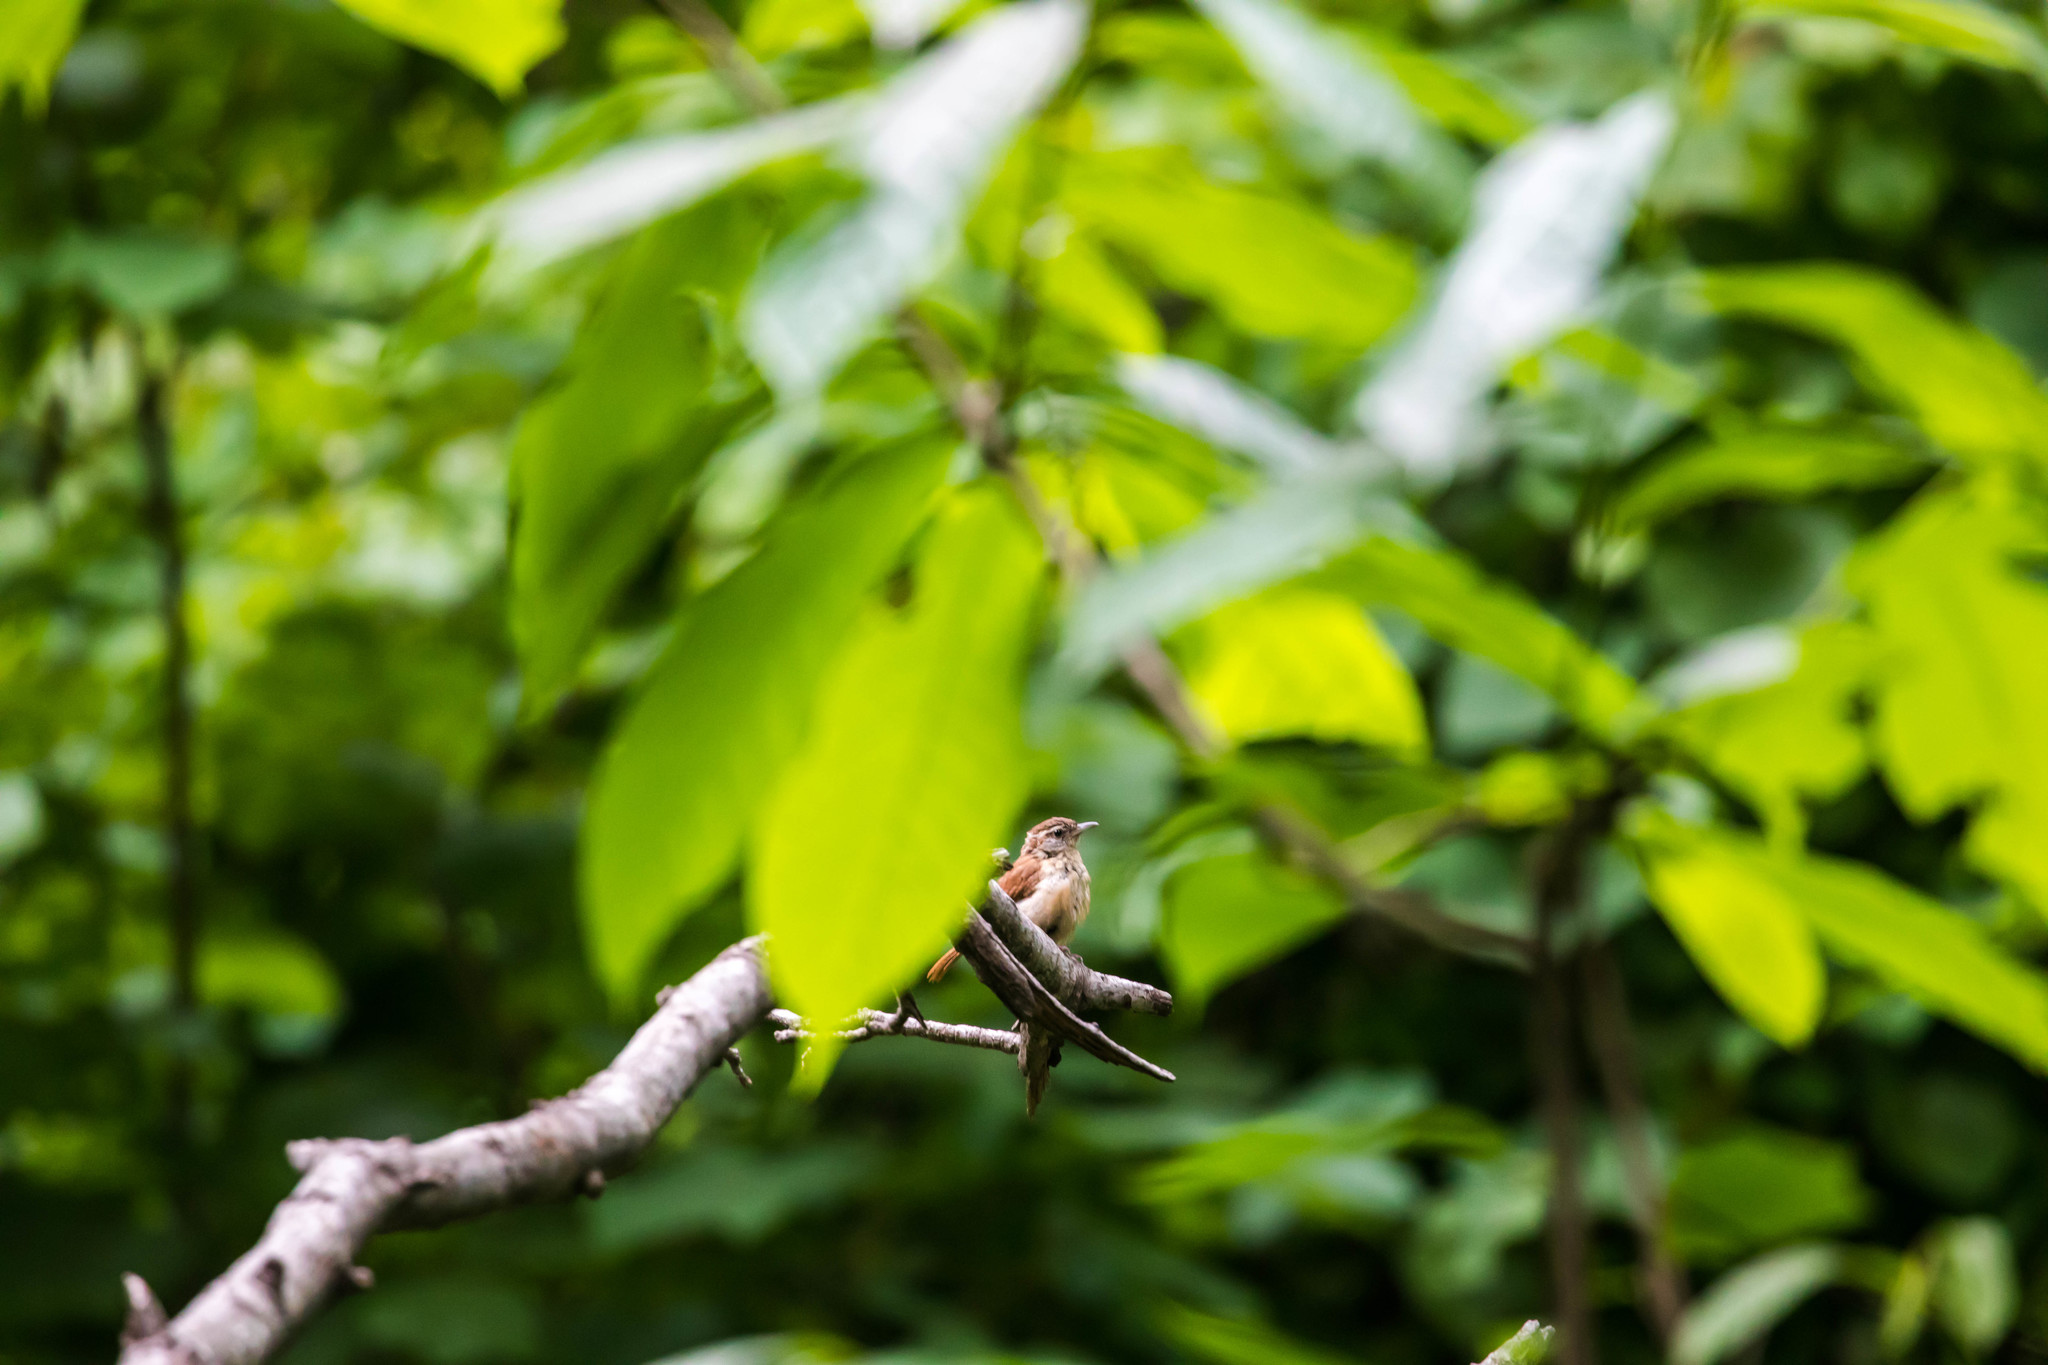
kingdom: Animalia
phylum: Chordata
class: Aves
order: Passeriformes
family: Troglodytidae
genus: Thryothorus
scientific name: Thryothorus ludovicianus
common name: Carolina wren
